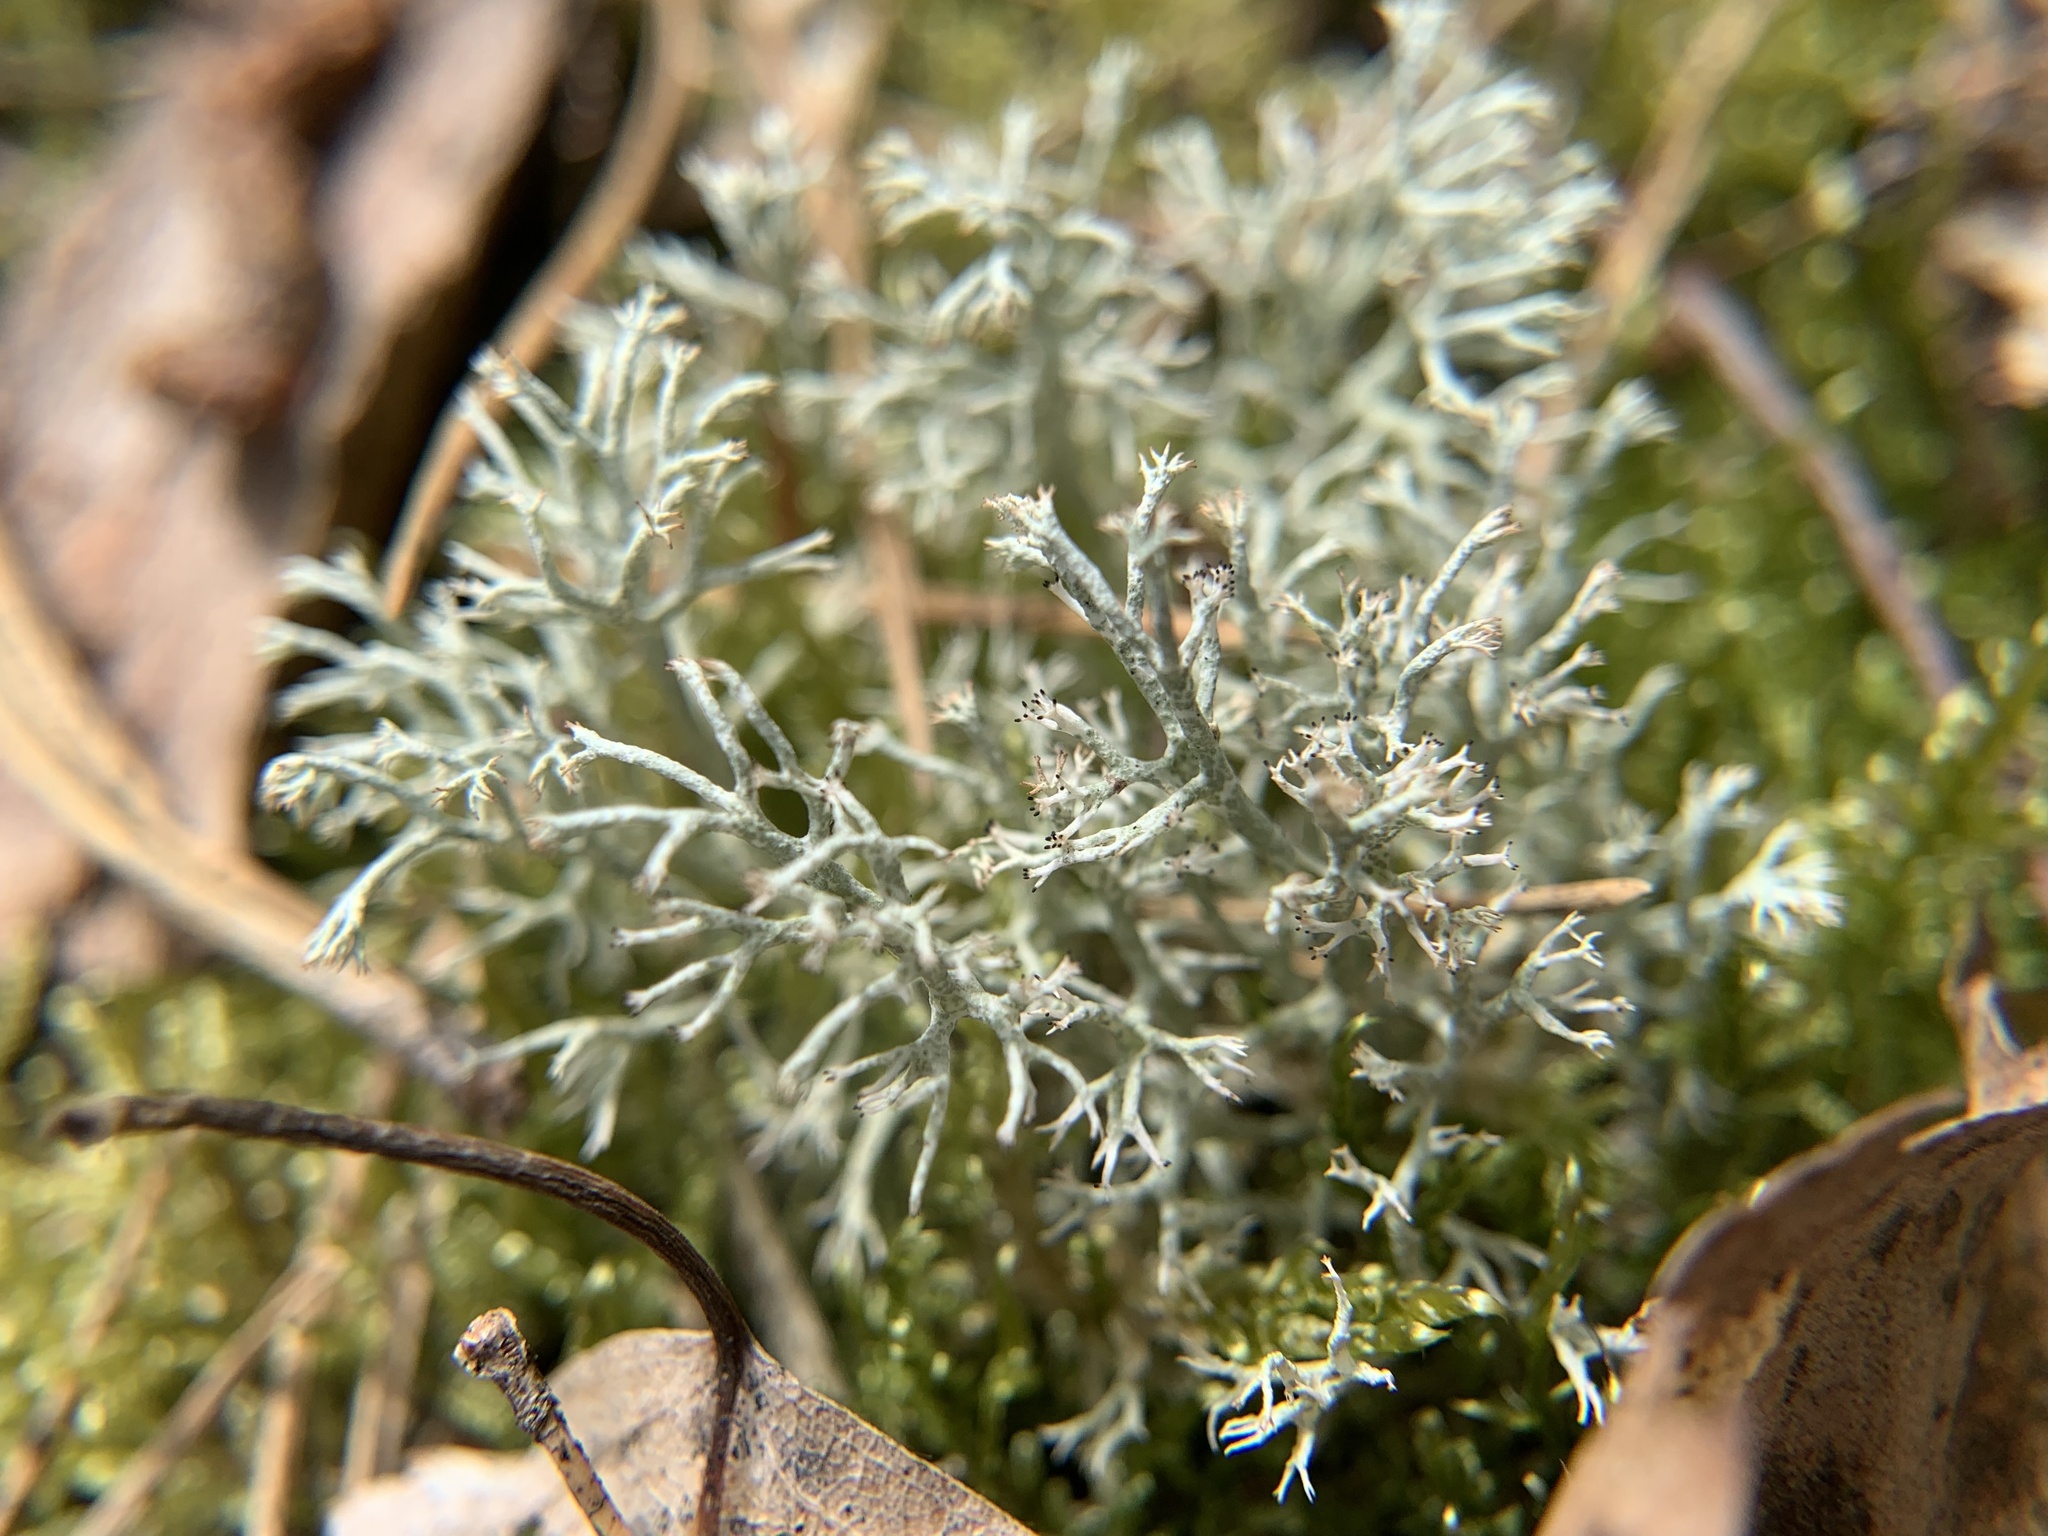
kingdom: Fungi
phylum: Ascomycota
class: Lecanoromycetes
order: Lecanorales
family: Cladoniaceae
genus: Cladonia
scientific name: Cladonia arbuscula
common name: Reindeer lichen
